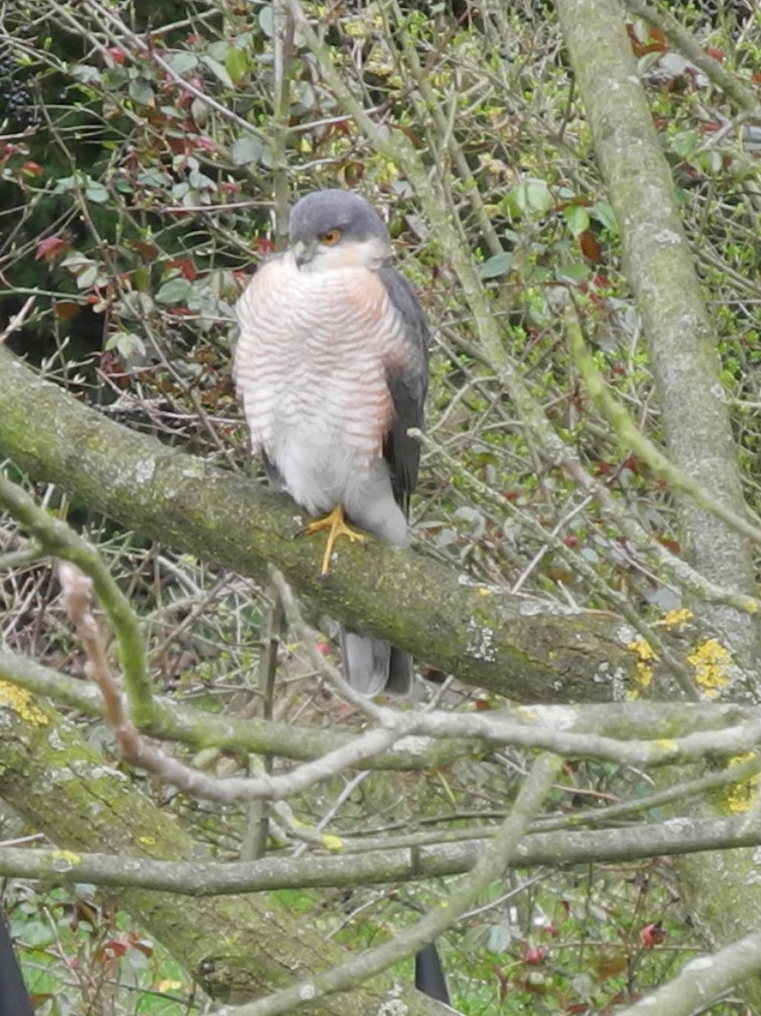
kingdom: Animalia
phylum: Chordata
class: Aves
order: Accipitriformes
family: Accipitridae
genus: Accipiter
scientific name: Accipiter nisus
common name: Eurasian sparrowhawk
